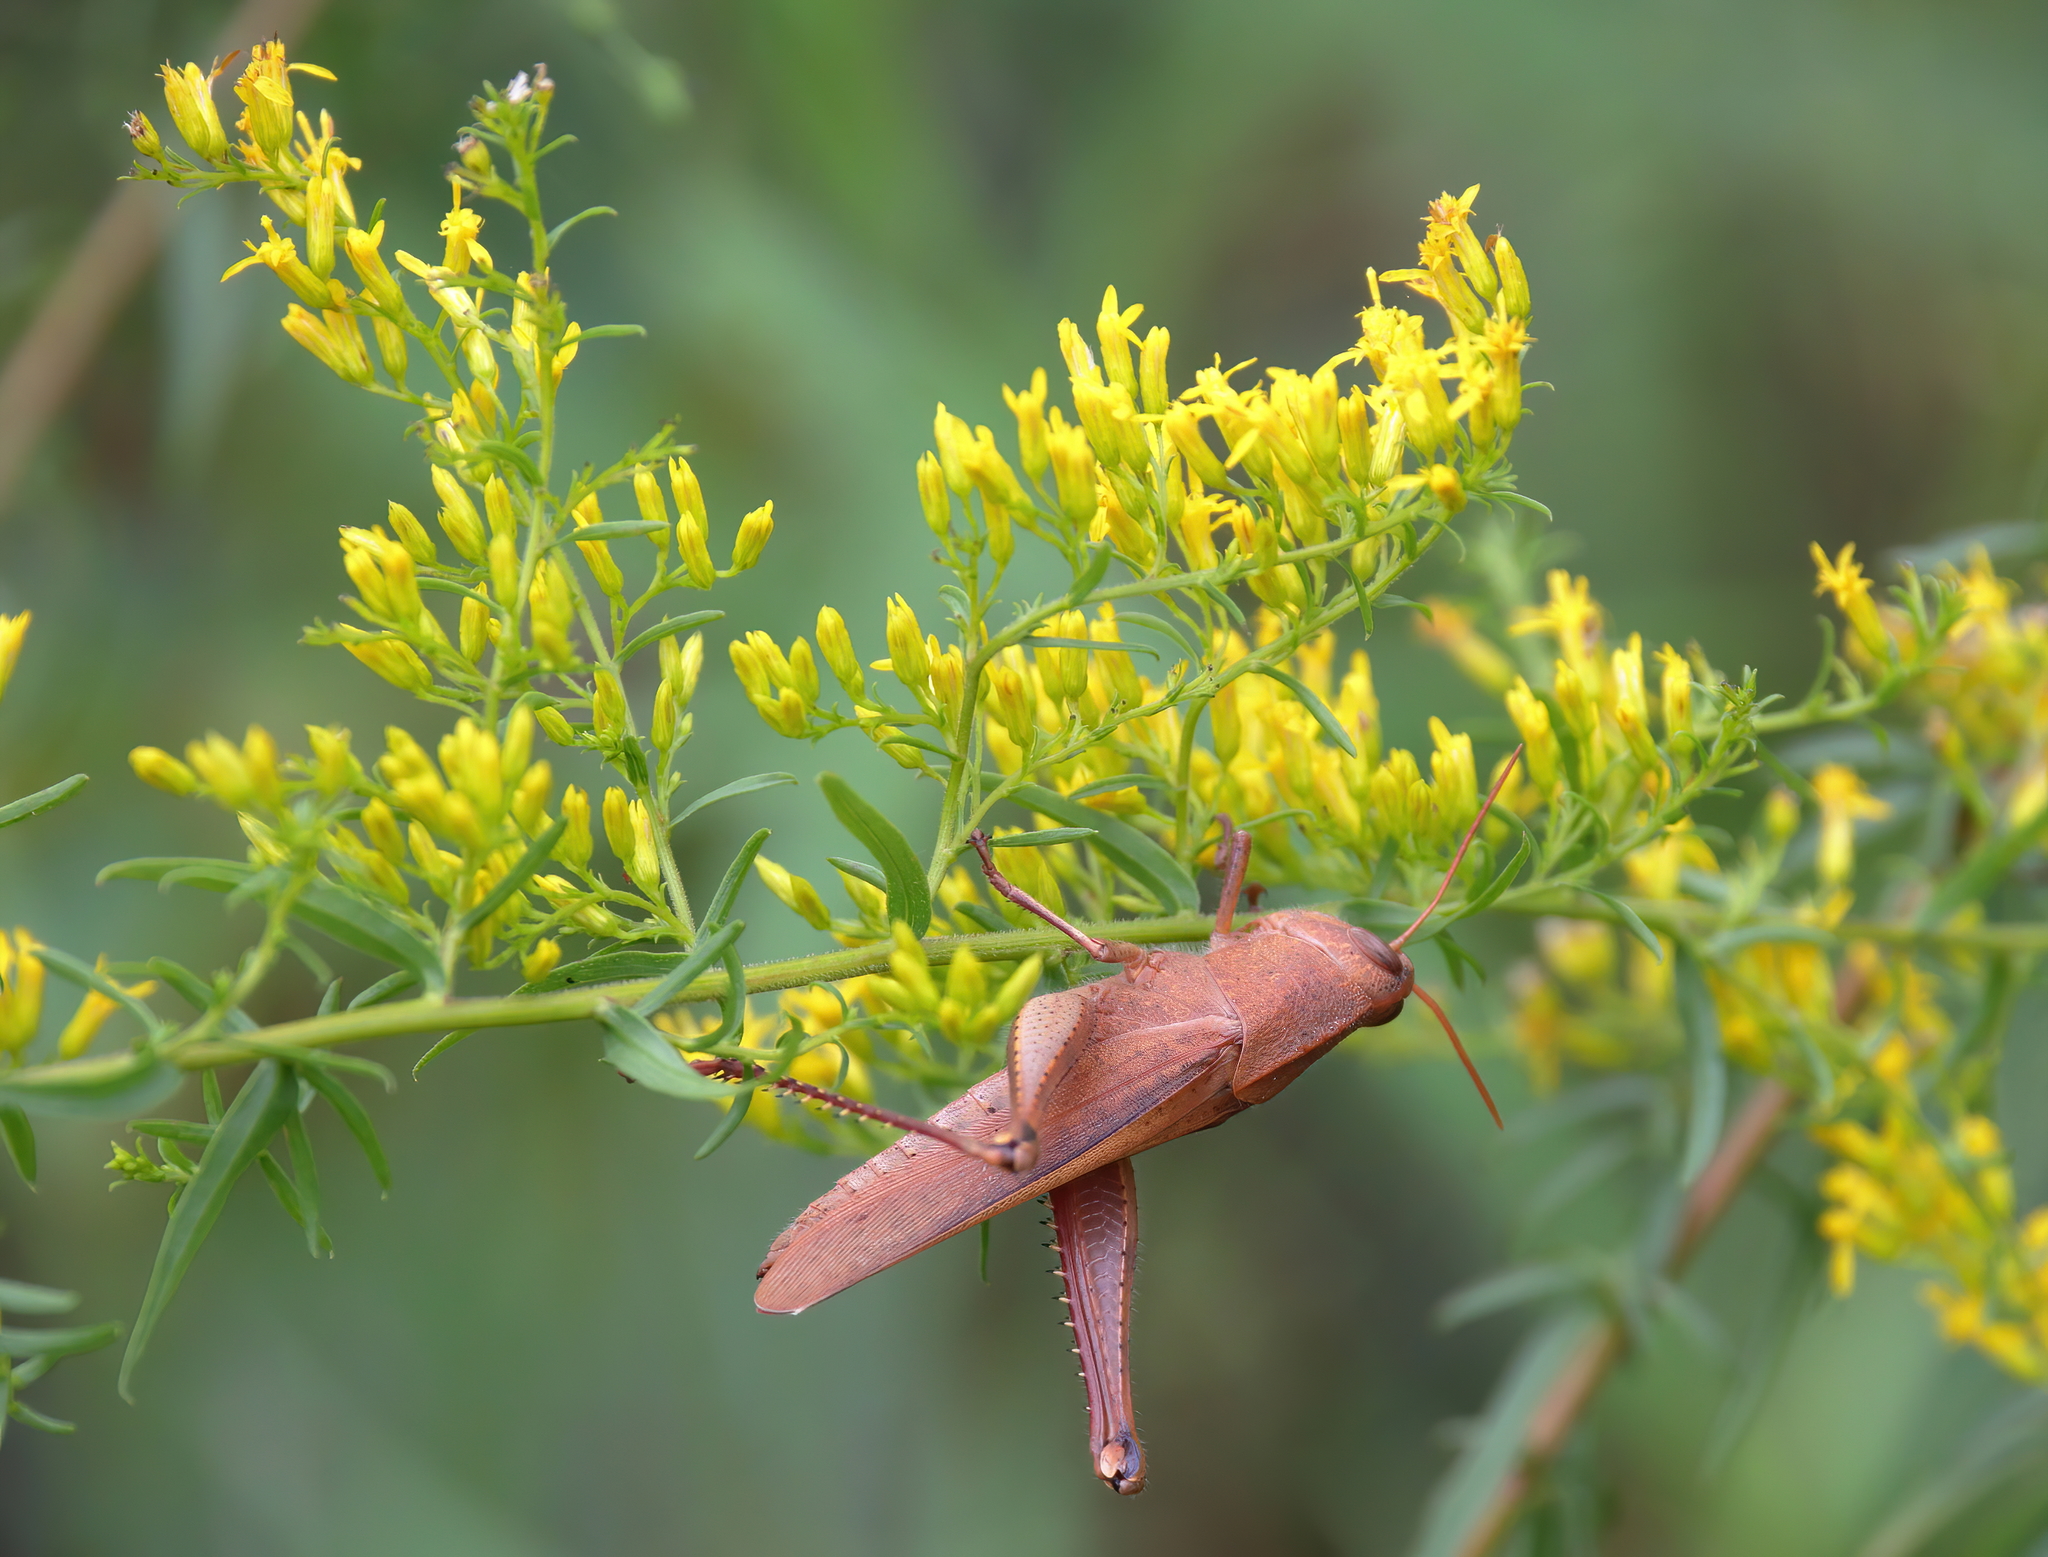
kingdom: Animalia
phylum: Arthropoda
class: Insecta
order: Orthoptera
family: Acrididae
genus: Schistocerca
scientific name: Schistocerca damnifica
